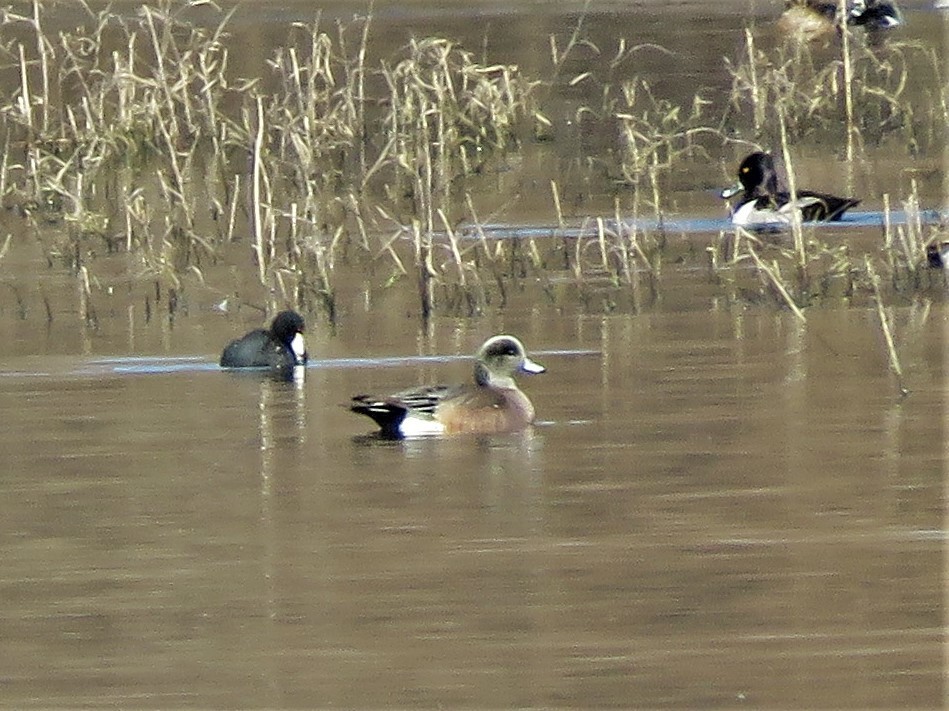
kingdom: Animalia
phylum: Chordata
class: Aves
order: Anseriformes
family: Anatidae
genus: Mareca
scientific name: Mareca americana
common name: American wigeon
